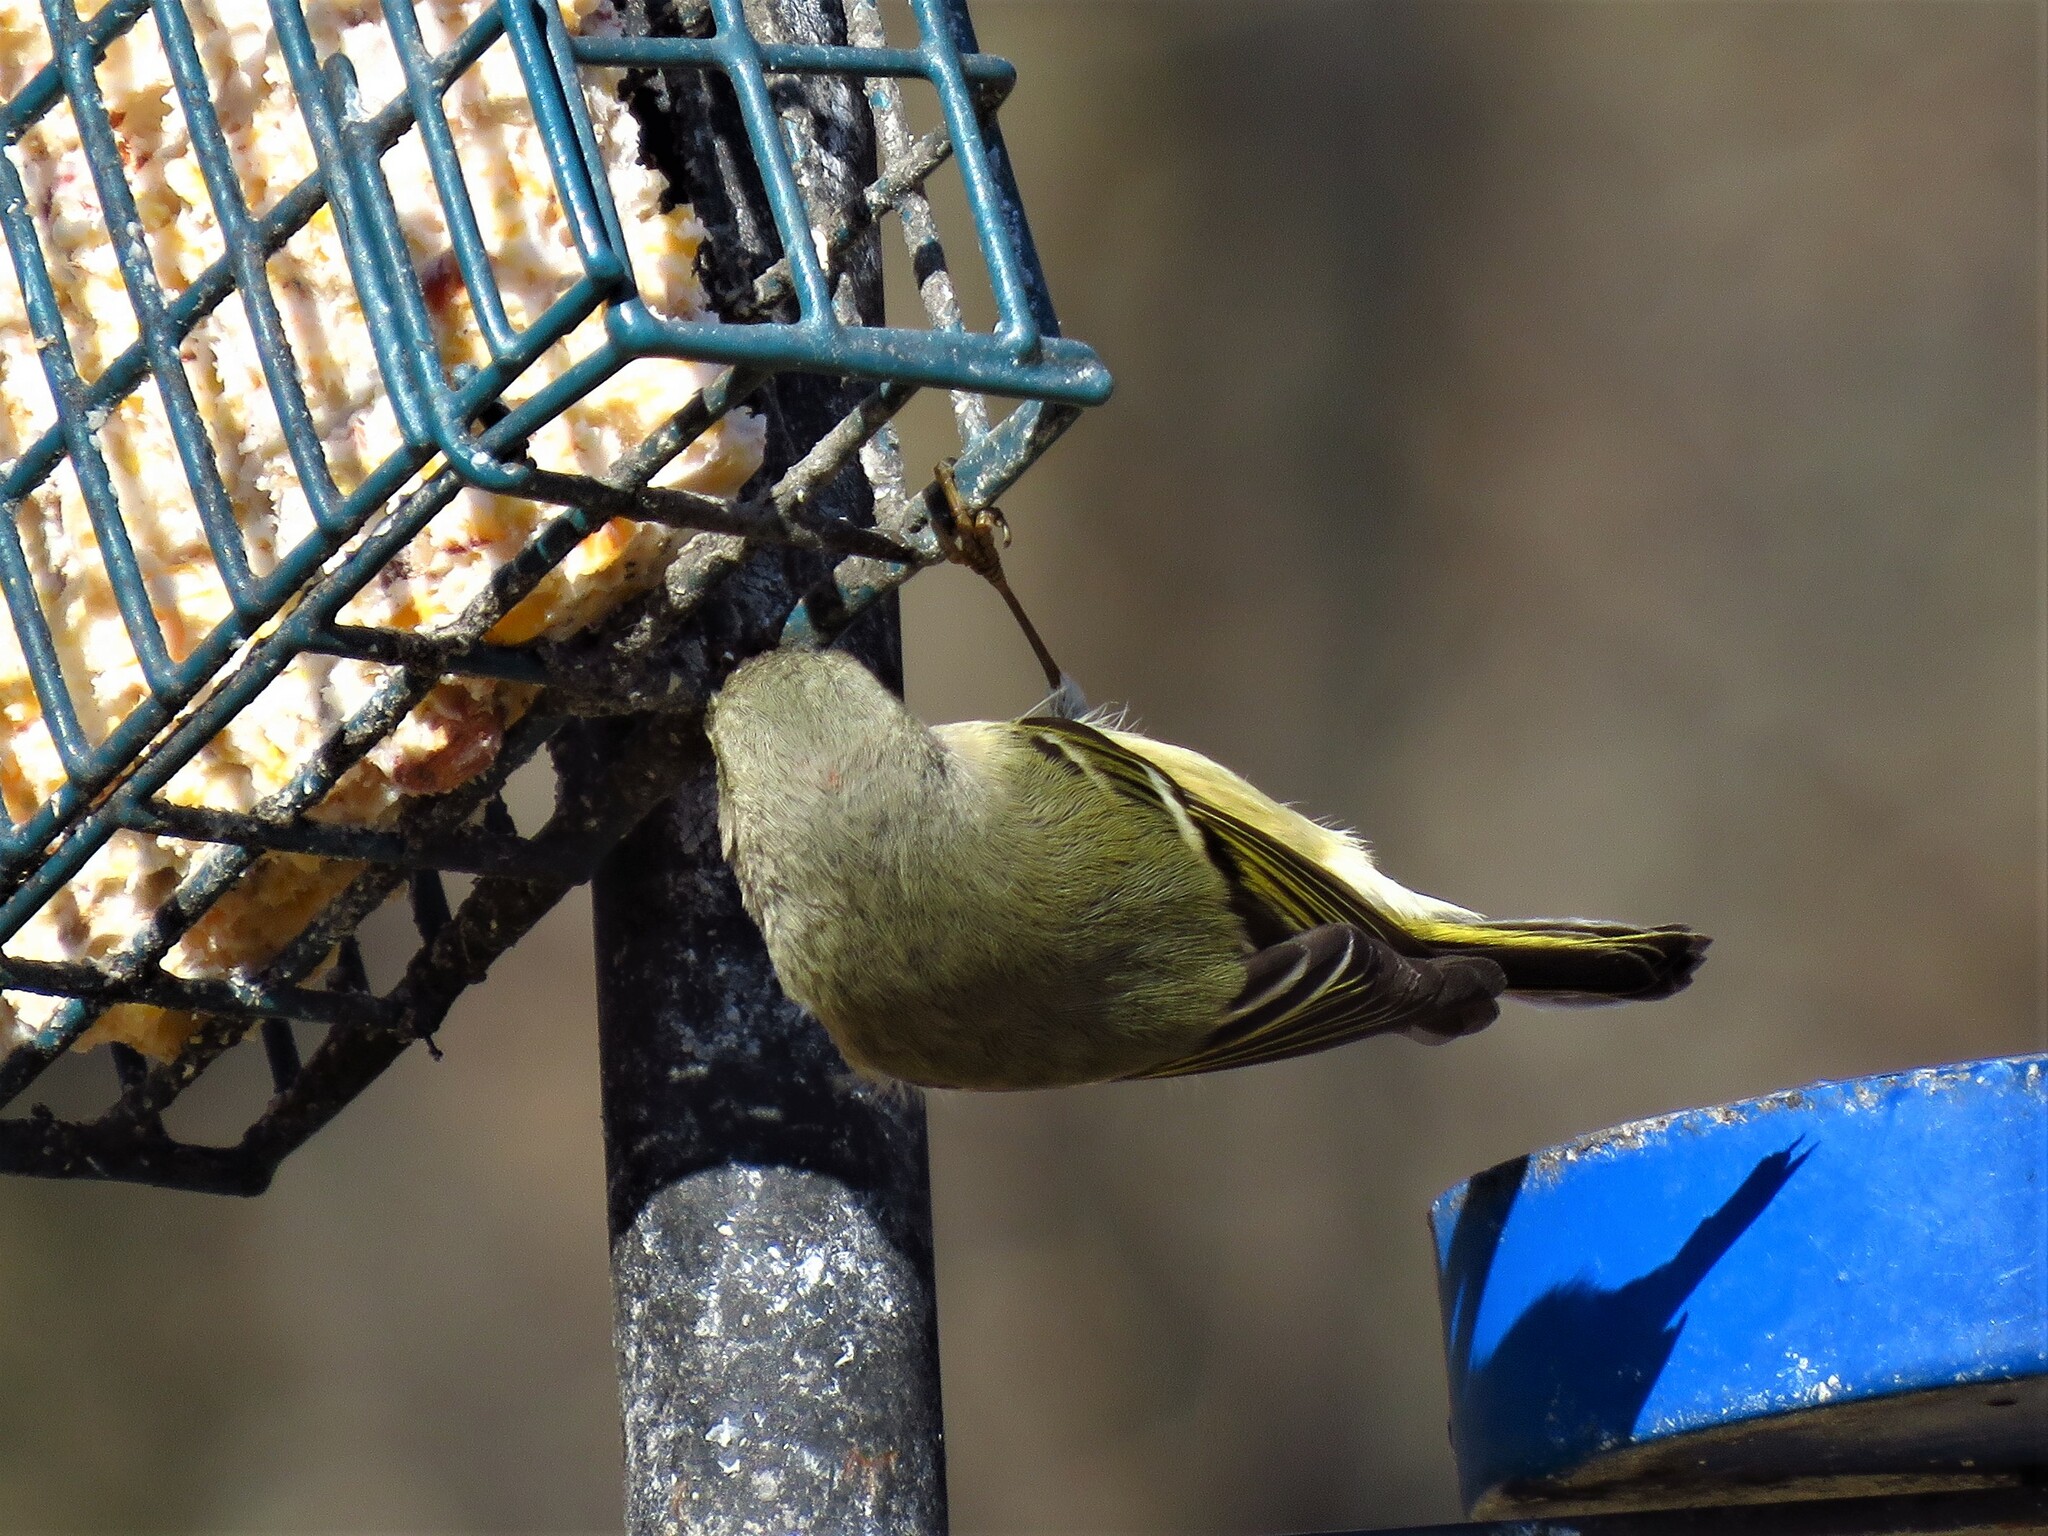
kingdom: Animalia
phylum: Chordata
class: Aves
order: Passeriformes
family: Regulidae
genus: Regulus
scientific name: Regulus calendula
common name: Ruby-crowned kinglet
